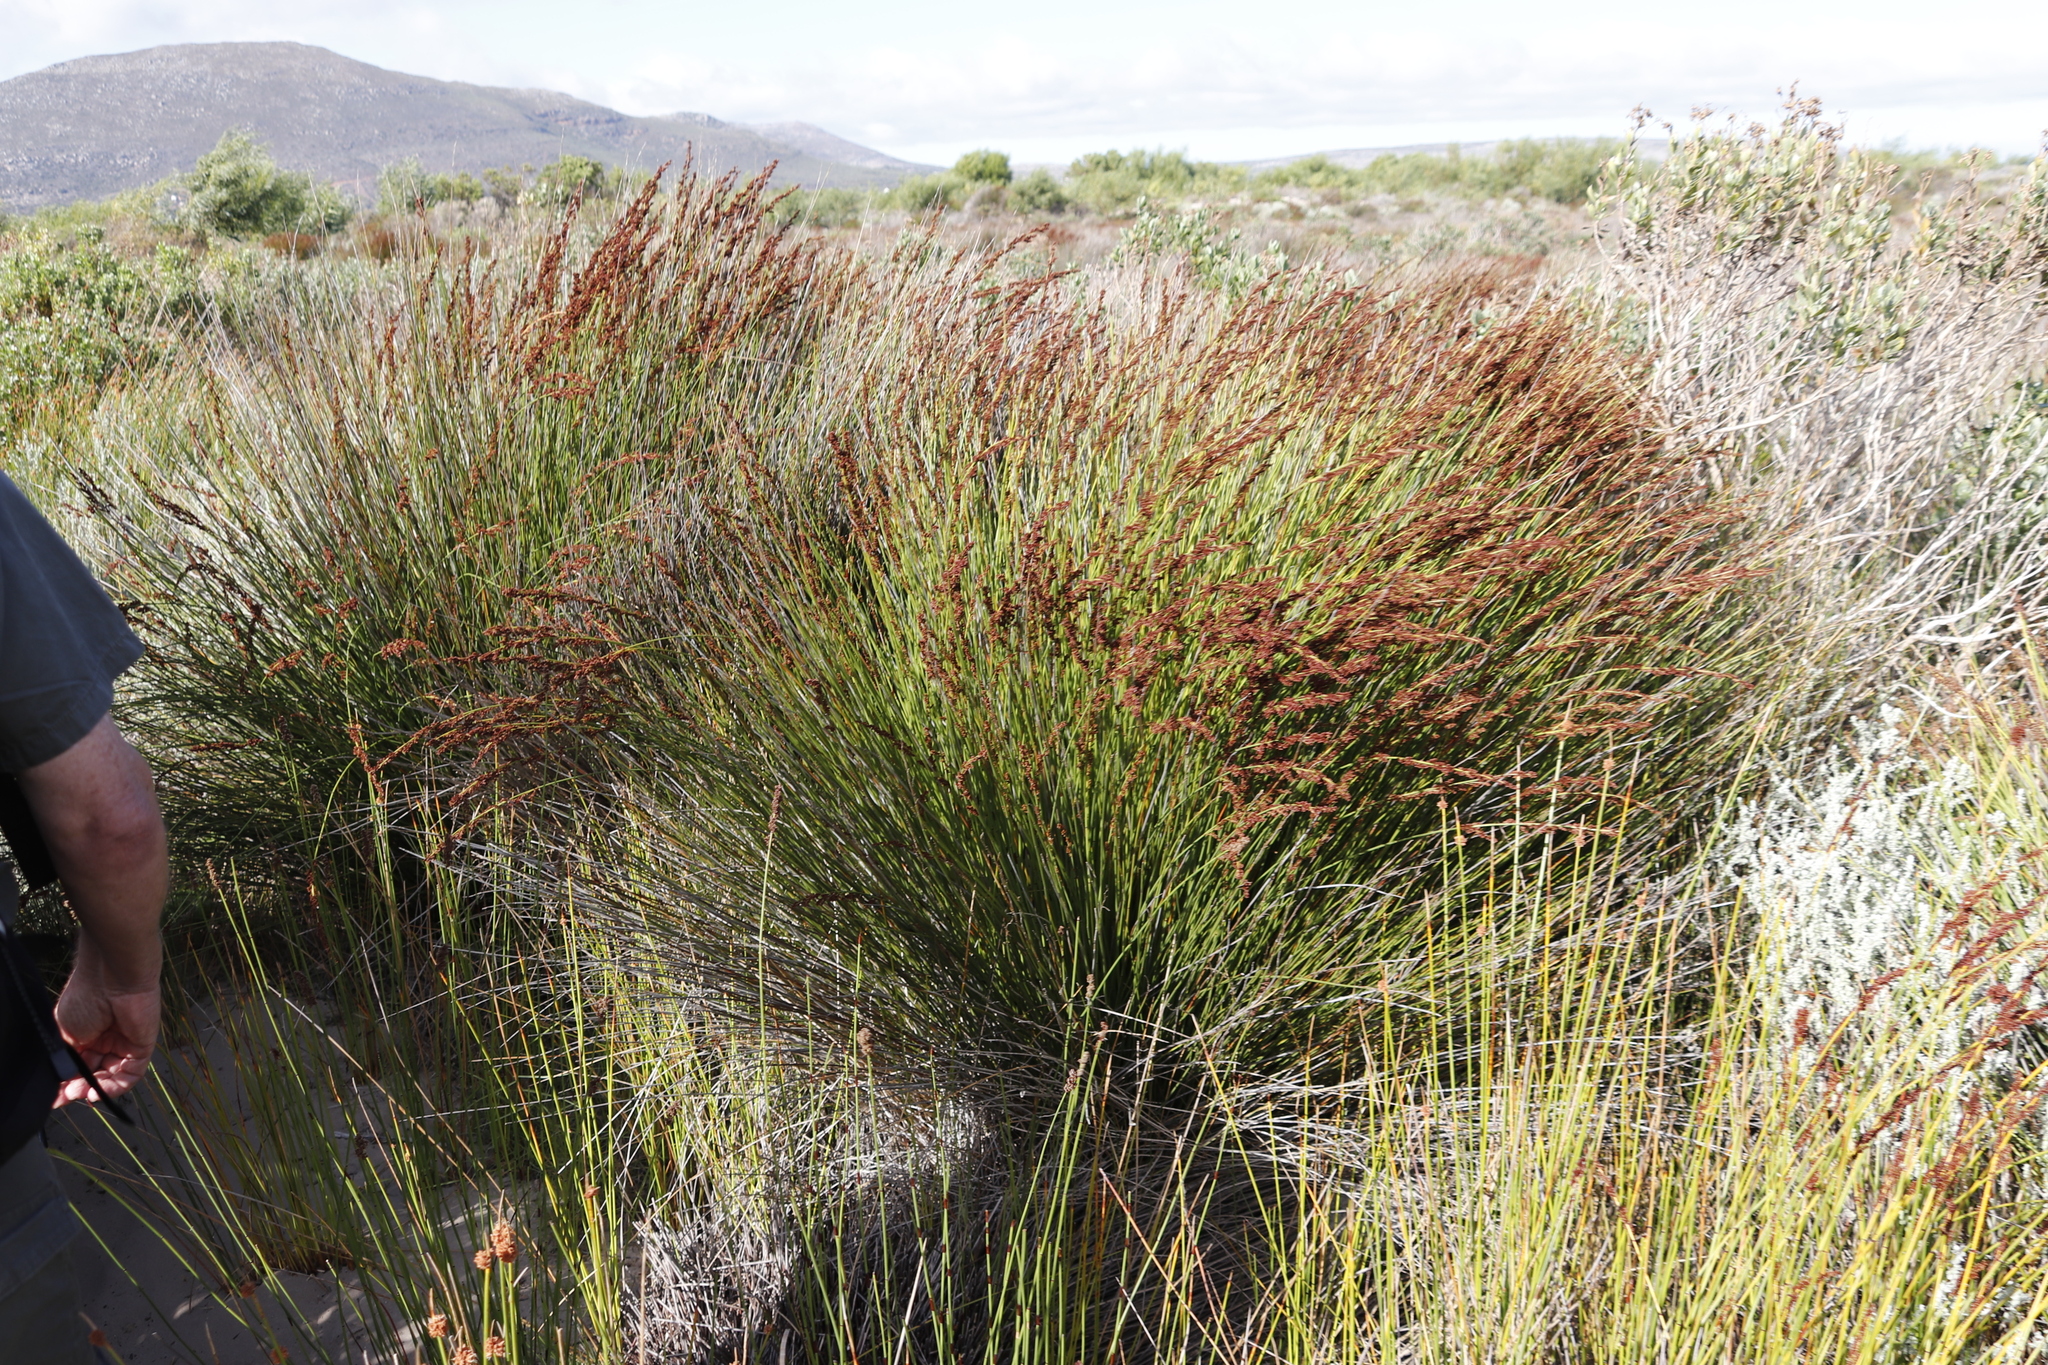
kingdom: Plantae
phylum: Tracheophyta
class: Liliopsida
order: Poales
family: Restionaceae
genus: Elegia
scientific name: Elegia tectorum
